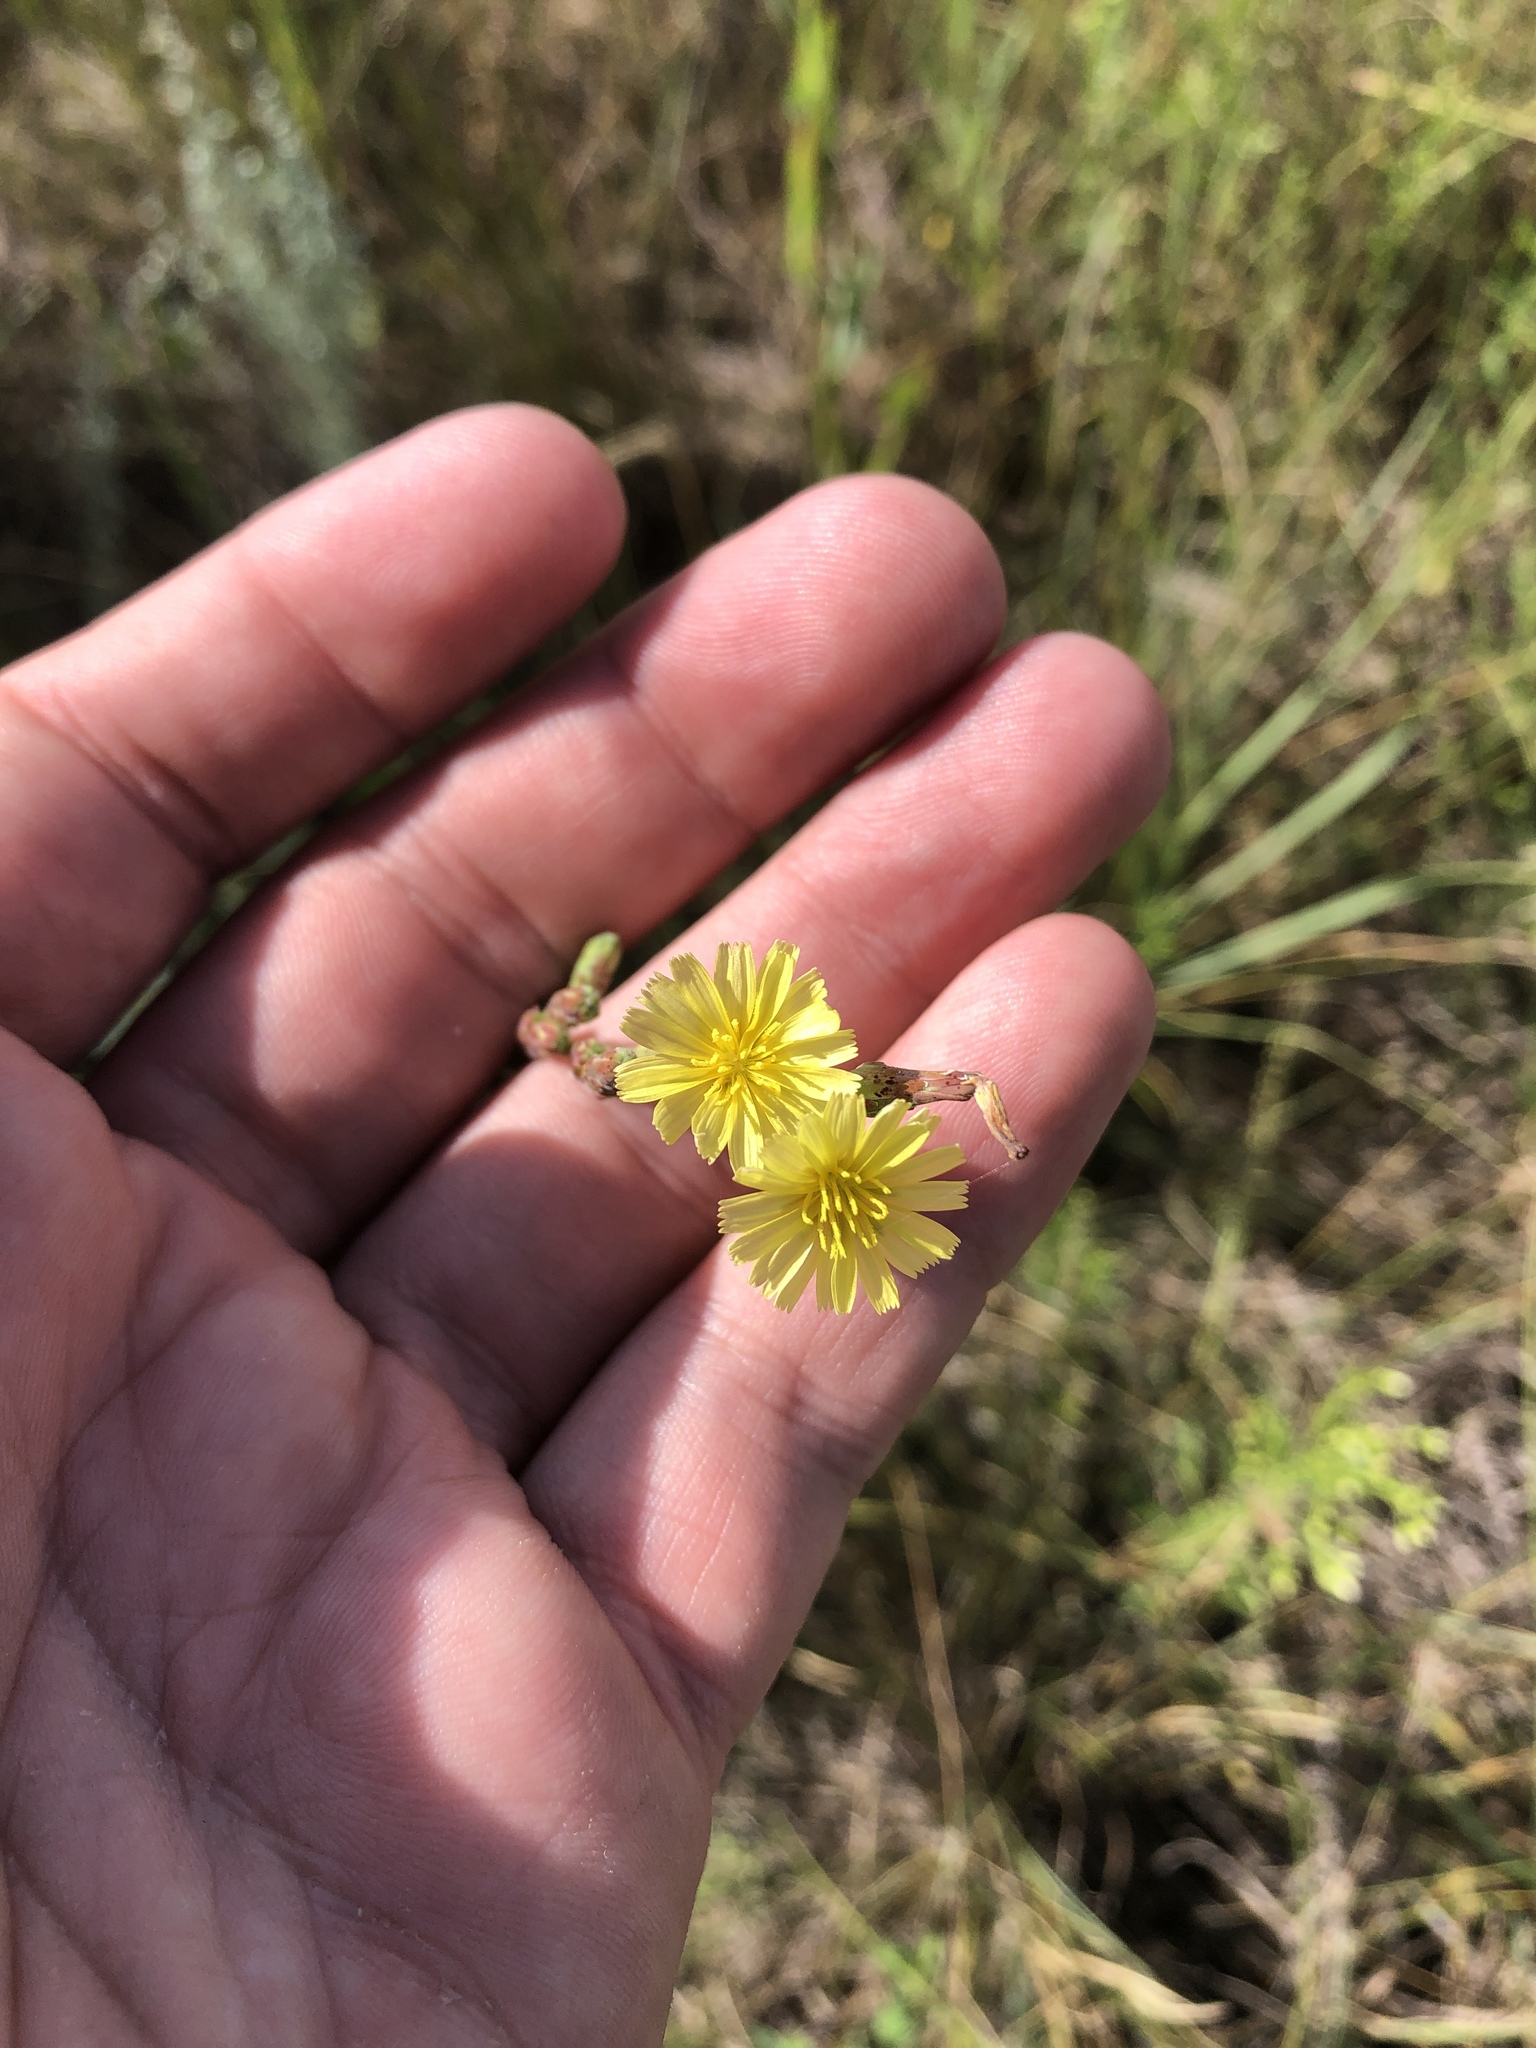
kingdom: Plantae
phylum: Tracheophyta
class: Magnoliopsida
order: Asterales
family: Asteraceae
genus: Lactuca
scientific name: Lactuca serriola
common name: Prickly lettuce
